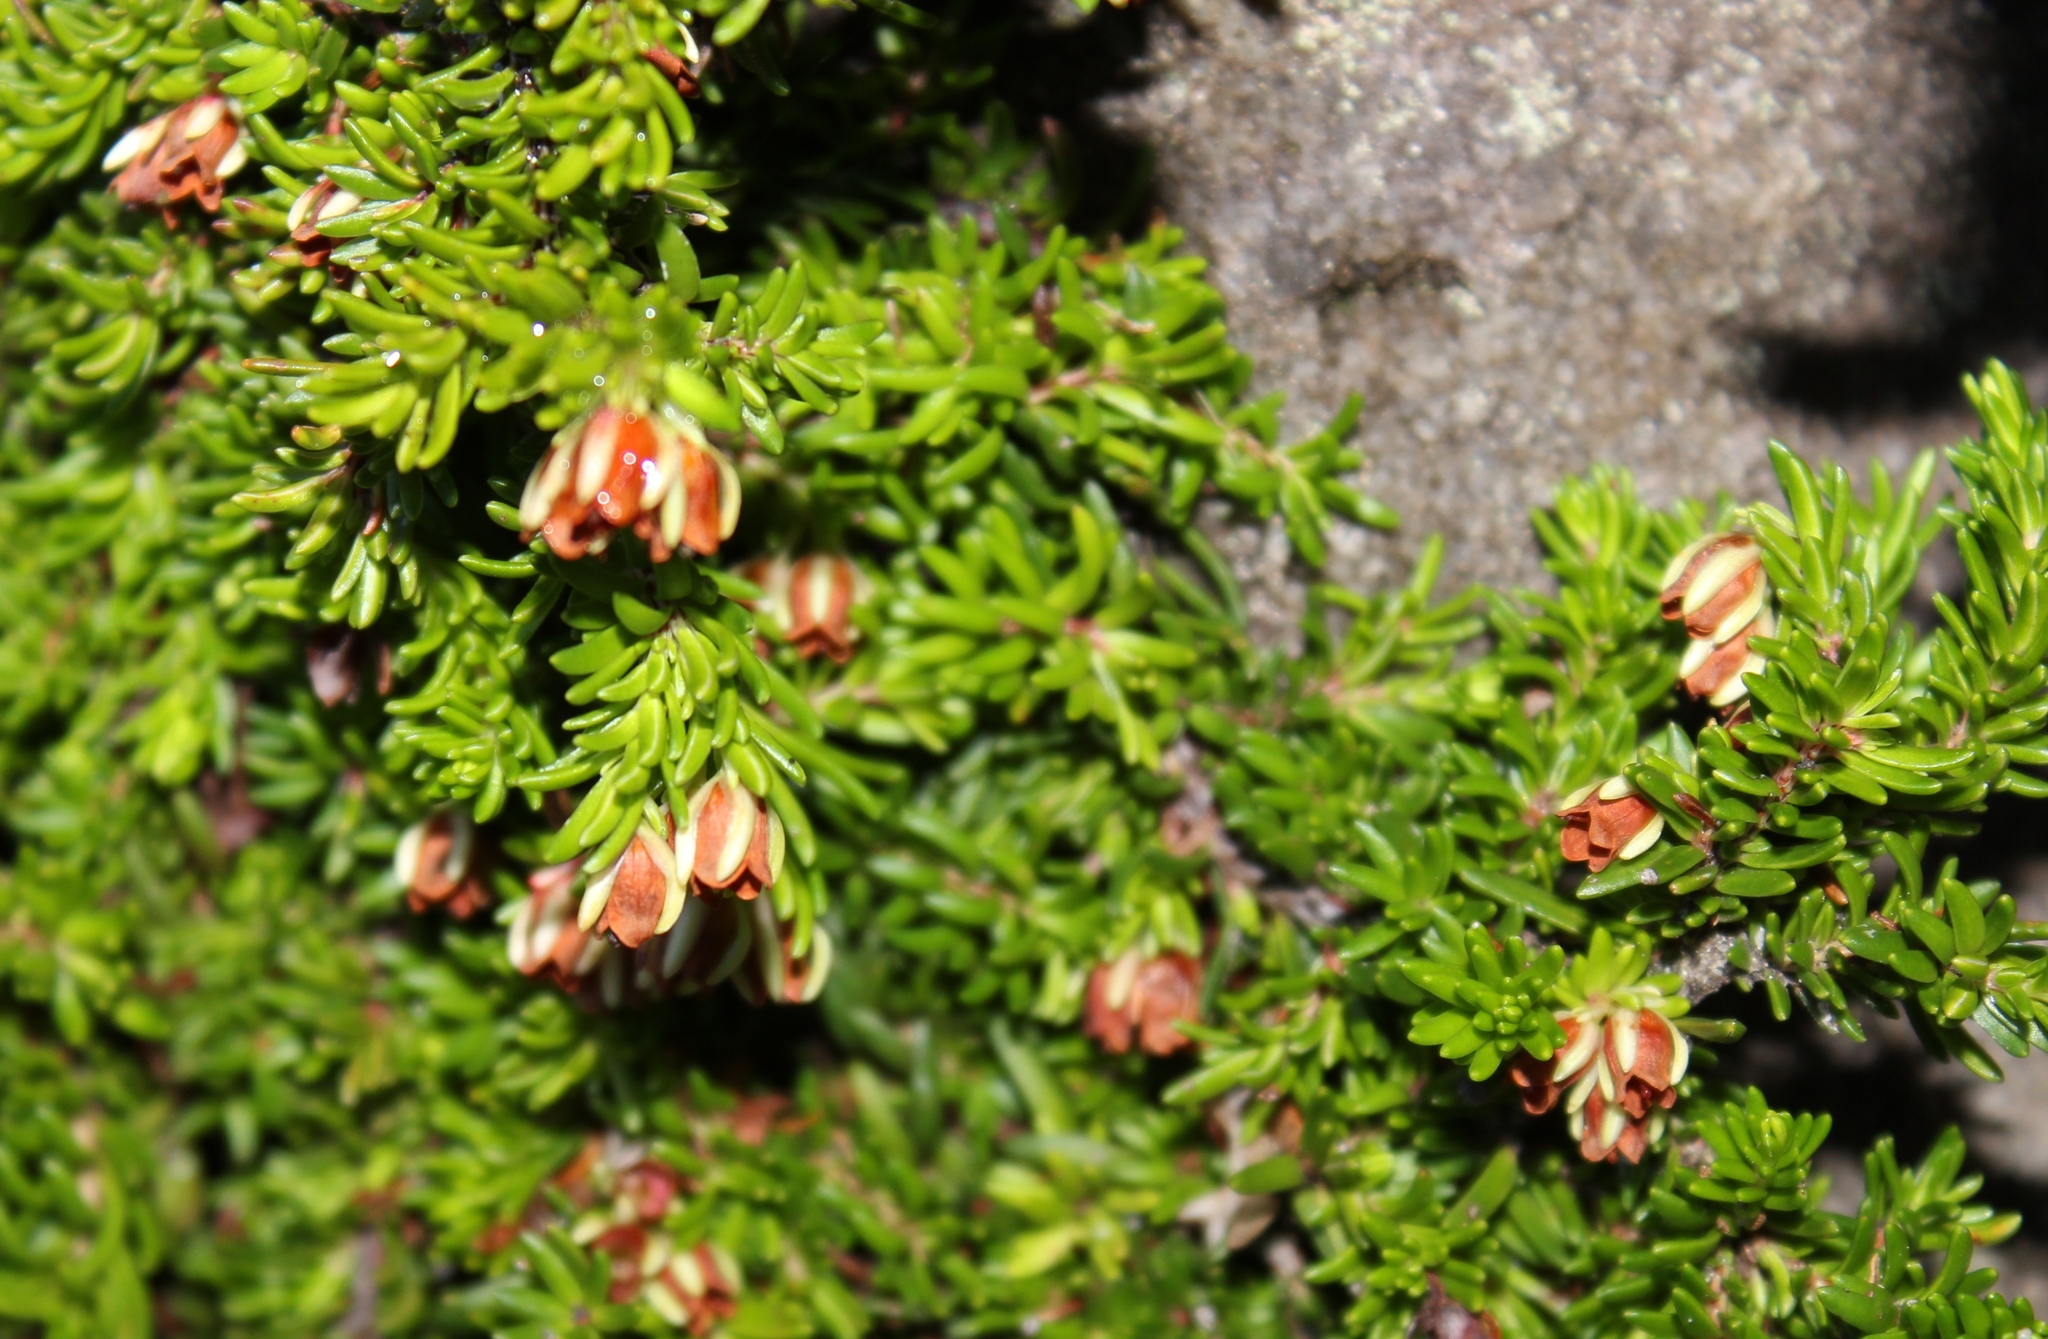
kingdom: Plantae
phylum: Tracheophyta
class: Magnoliopsida
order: Ericales
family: Ericaceae
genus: Erica
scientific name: Erica depressa
